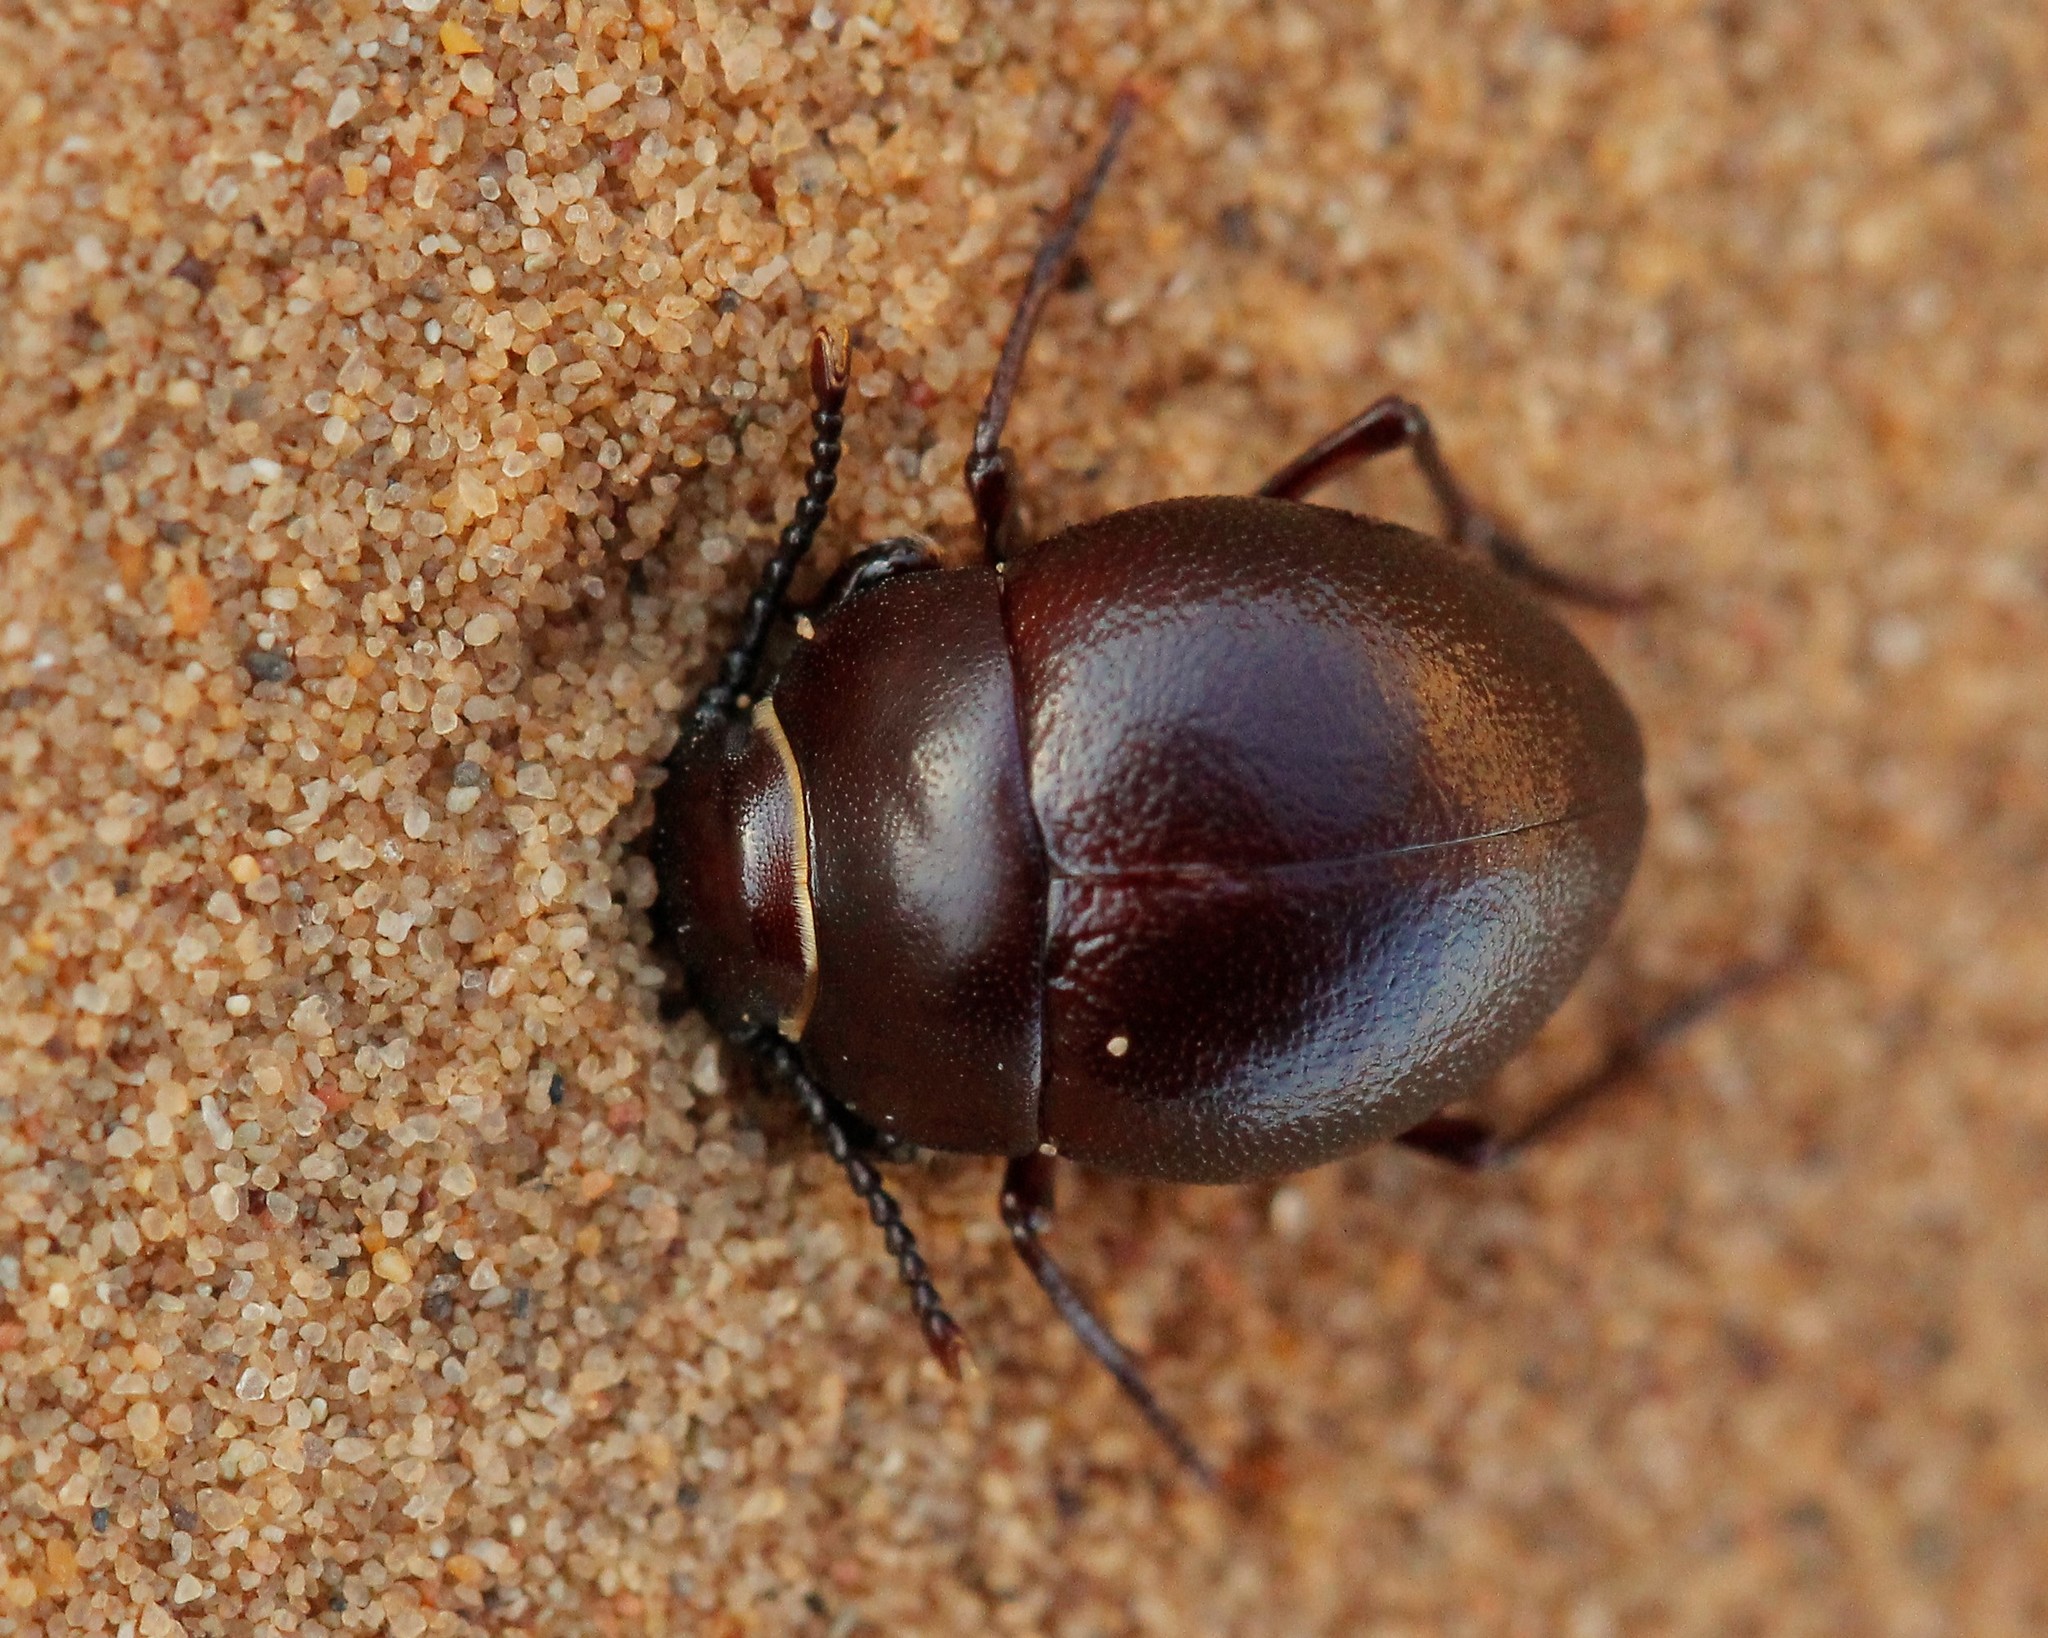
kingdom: Animalia
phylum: Arthropoda
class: Insecta
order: Coleoptera
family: Tenebrionidae
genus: Diaphanidus
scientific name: Diaphanidus
